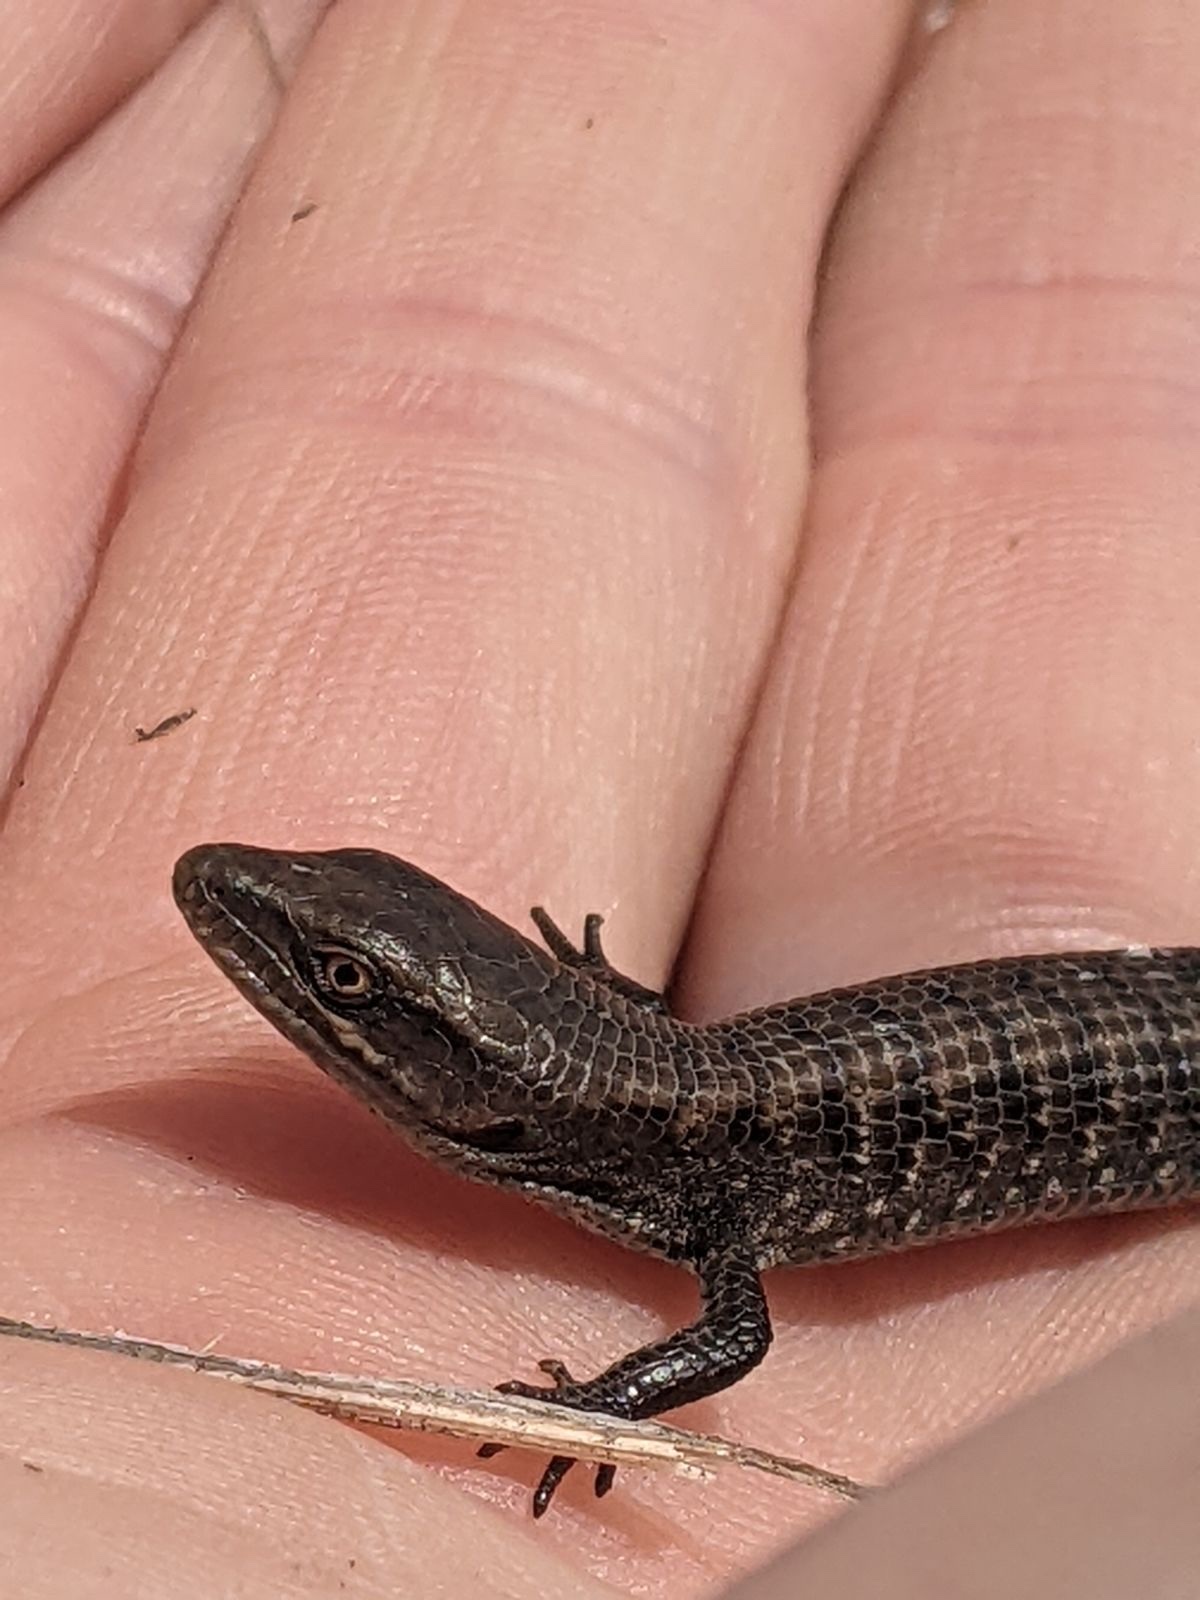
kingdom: Animalia
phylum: Chordata
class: Squamata
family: Anguidae
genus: Elgaria
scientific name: Elgaria multicarinata
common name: Southern alligator lizard
